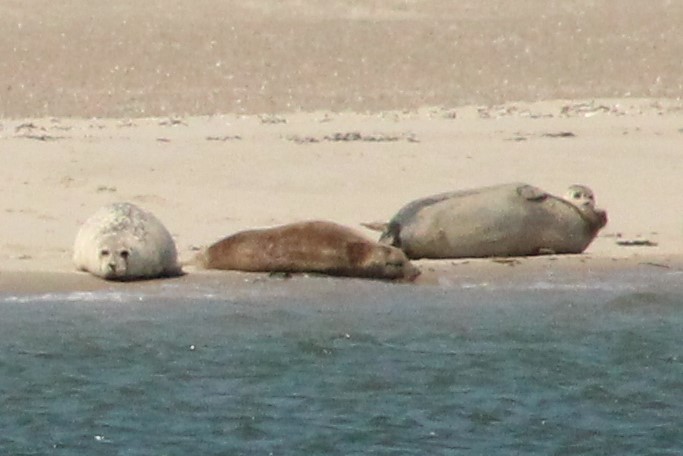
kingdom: Animalia
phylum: Chordata
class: Mammalia
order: Carnivora
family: Phocidae
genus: Phoca
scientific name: Phoca vitulina
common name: Harbor seal
